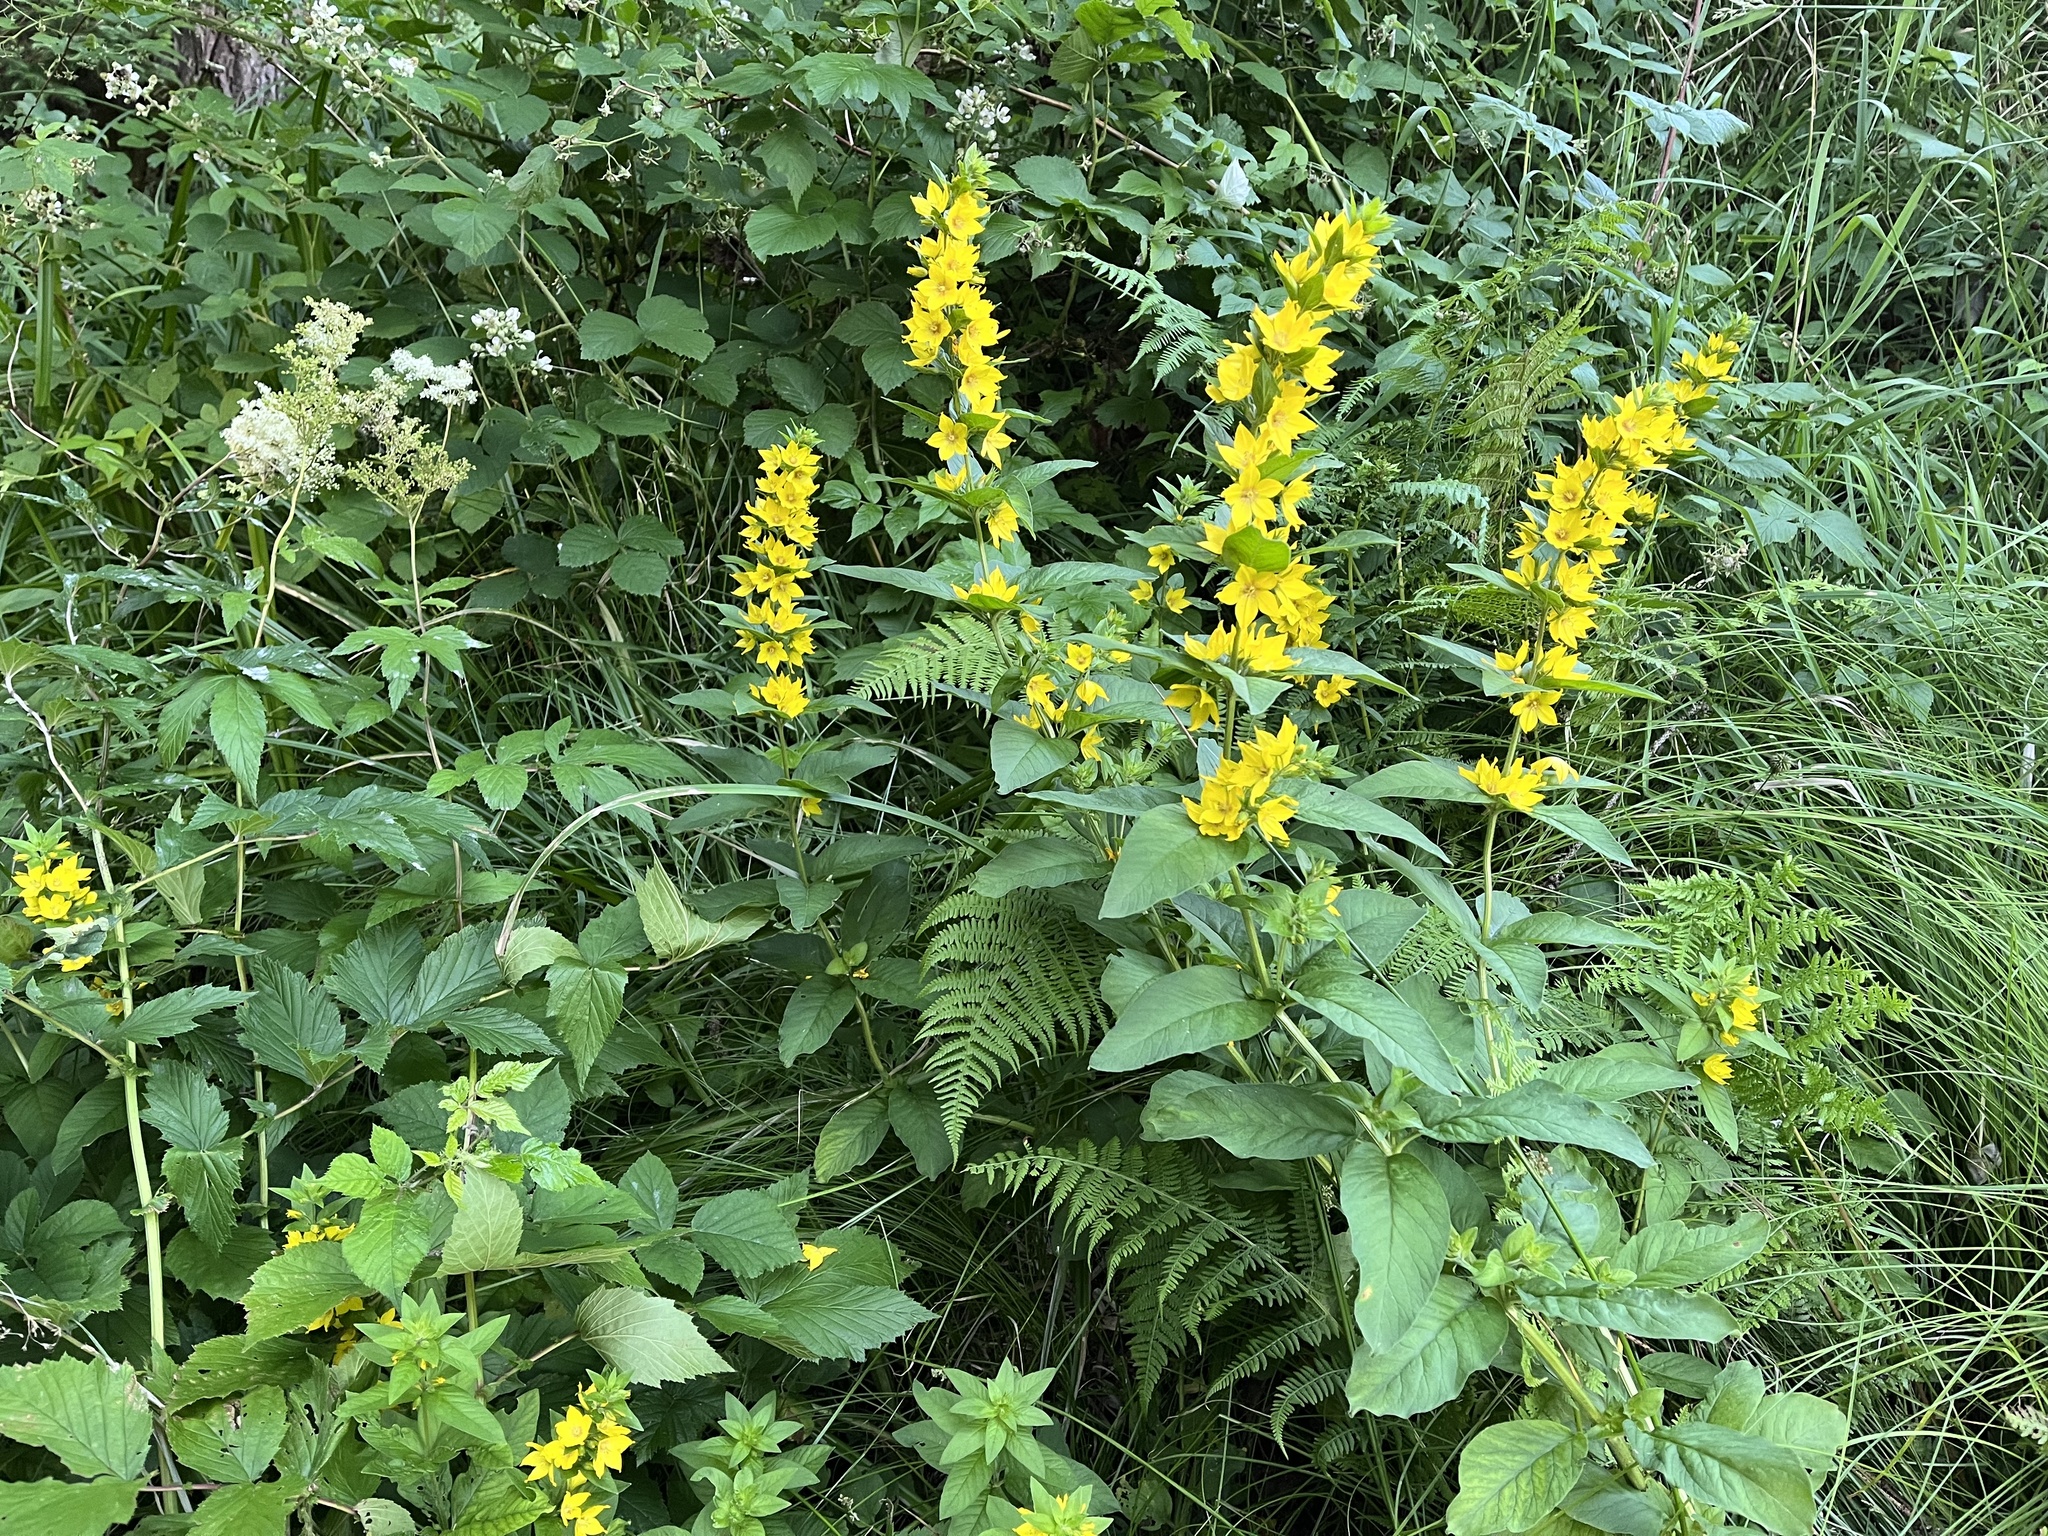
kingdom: Plantae
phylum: Tracheophyta
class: Magnoliopsida
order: Ericales
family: Primulaceae
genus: Lysimachia
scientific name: Lysimachia punctata
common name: Dotted loosestrife
